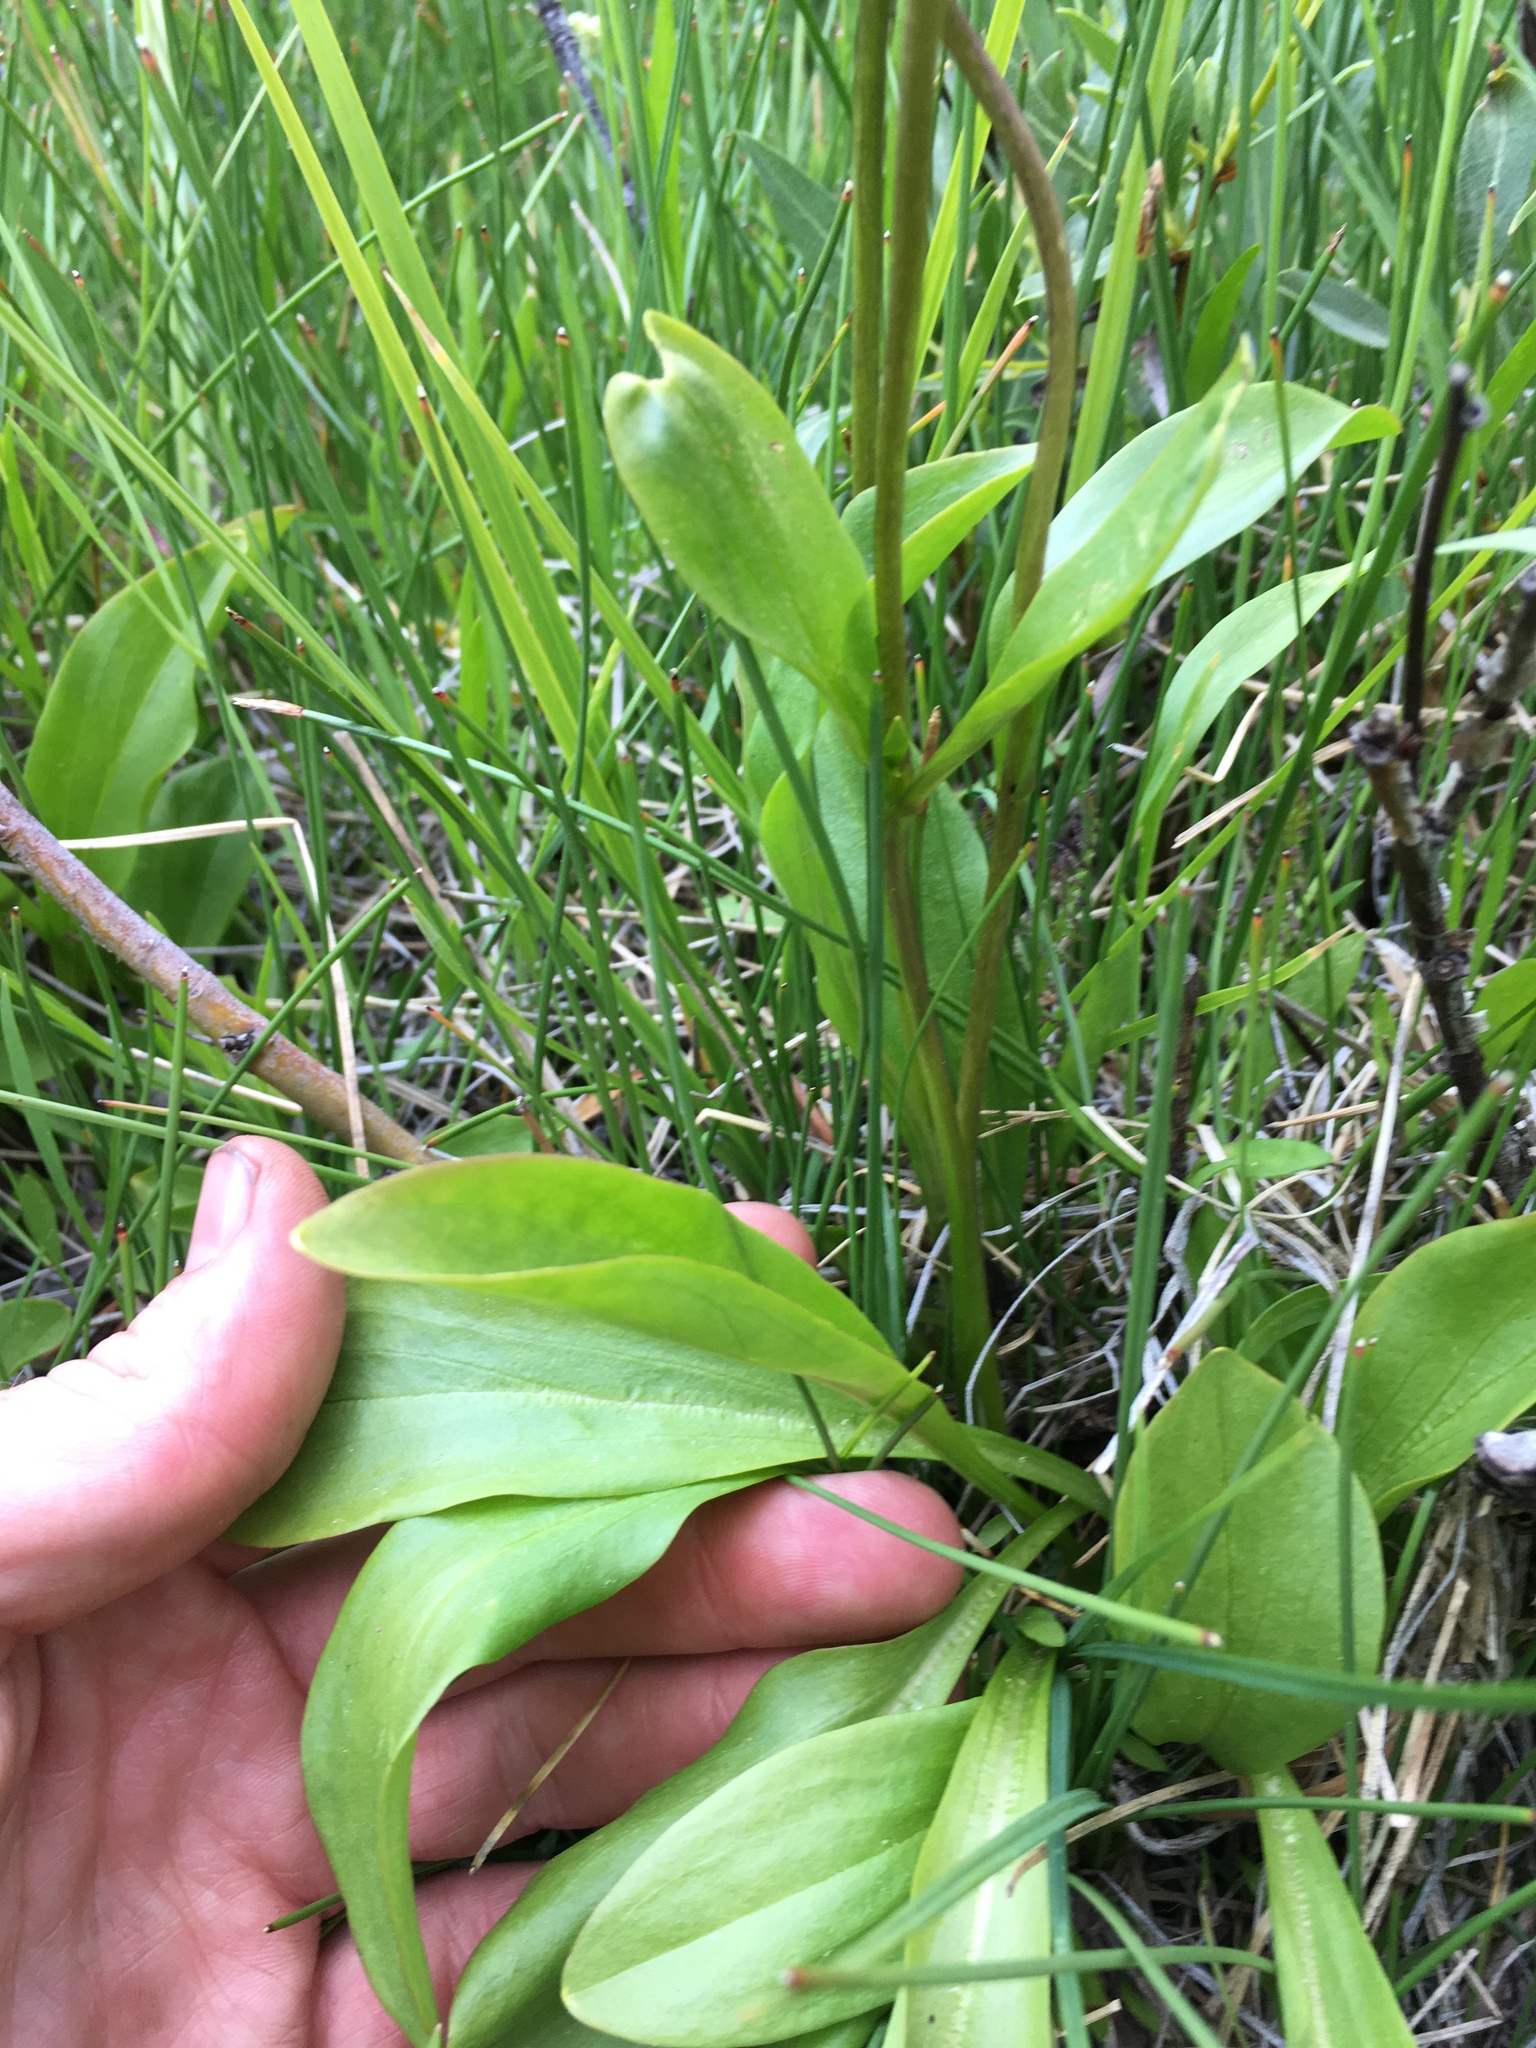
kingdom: Plantae
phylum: Tracheophyta
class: Magnoliopsida
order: Gentianales
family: Gentianaceae
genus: Swertia
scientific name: Swertia perennis
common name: Alpine bog swertia
